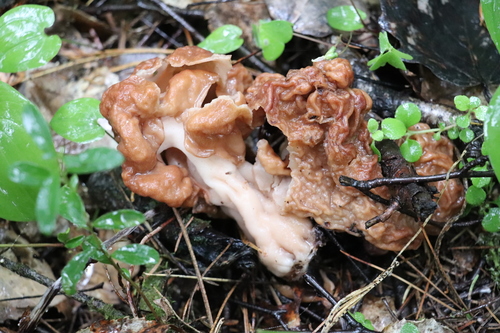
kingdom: Fungi
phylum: Ascomycota
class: Pezizomycetes
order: Pezizales
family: Discinaceae
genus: Gyromitra
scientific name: Gyromitra gigas
